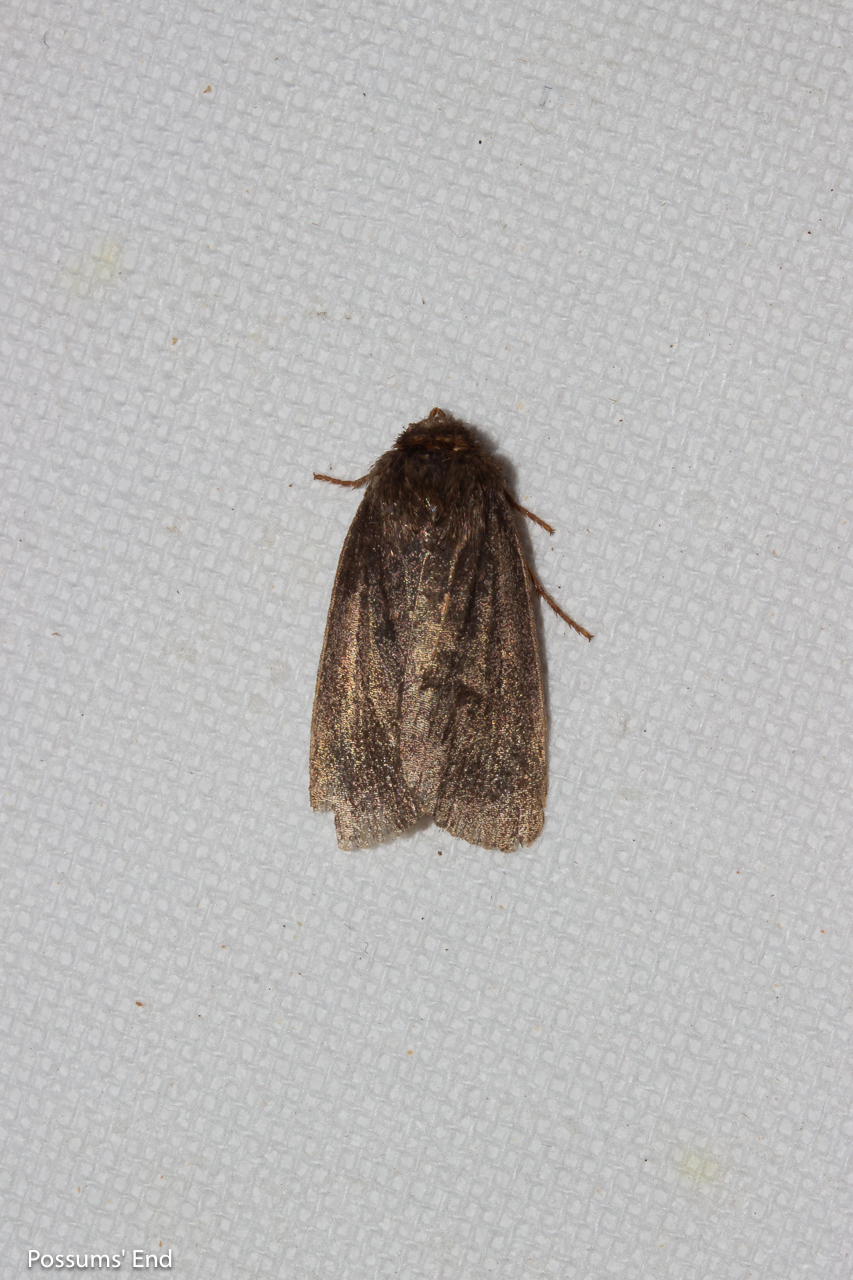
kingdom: Animalia
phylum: Arthropoda
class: Insecta
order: Lepidoptera
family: Noctuidae
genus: Bityla
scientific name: Bityla defigurata
